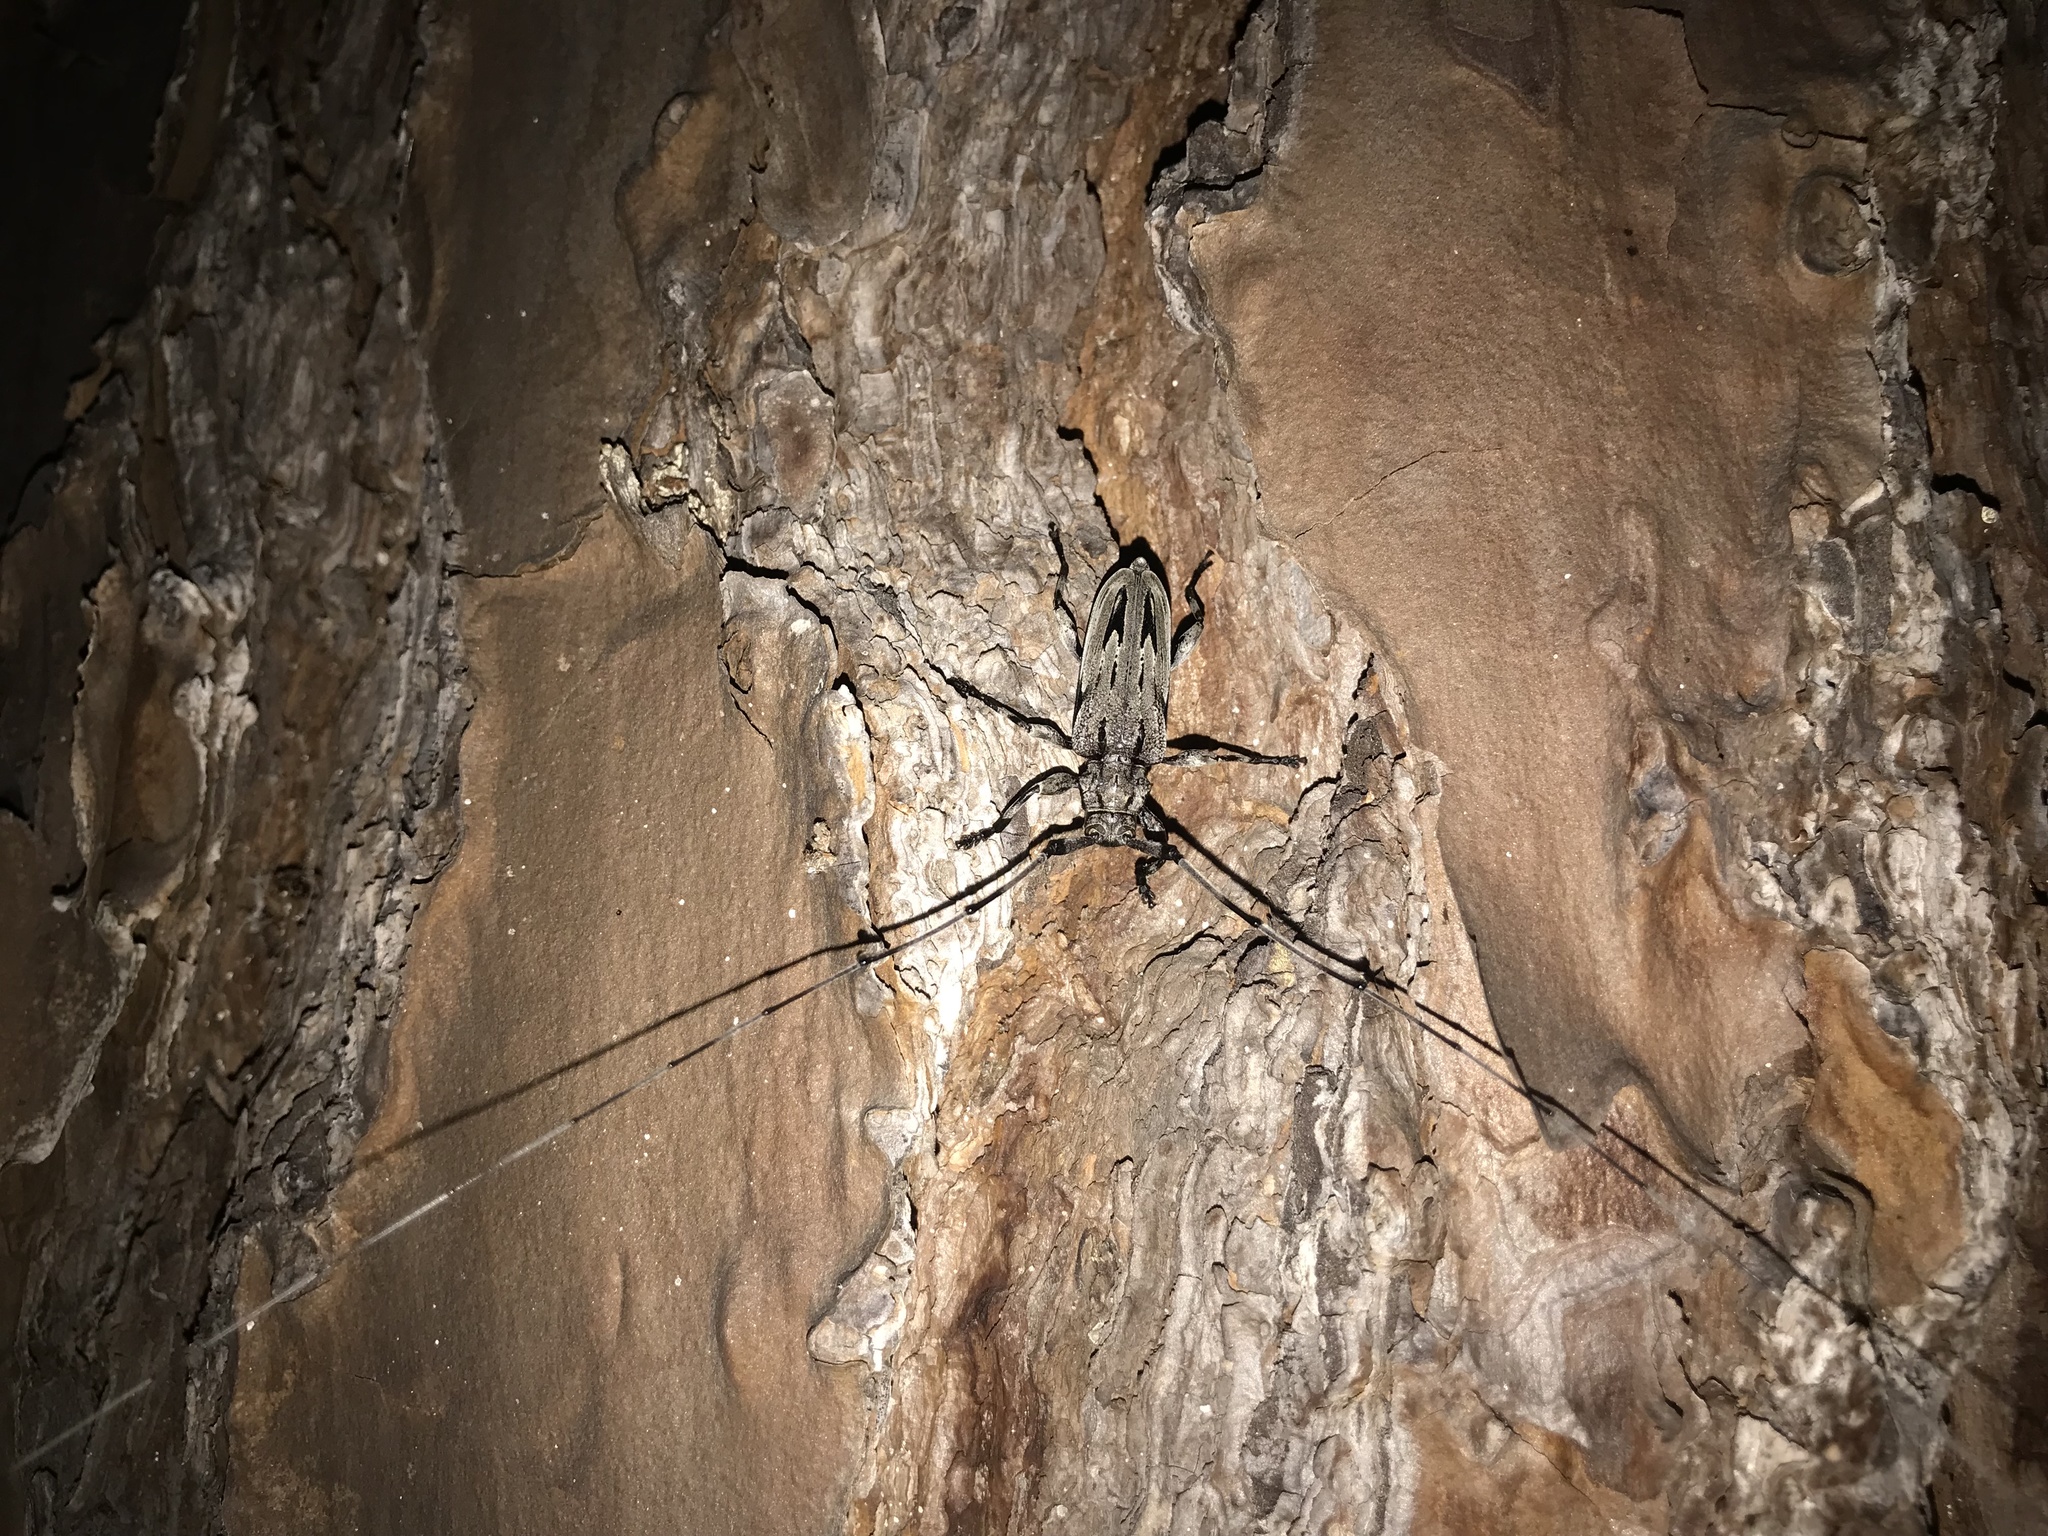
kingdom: Animalia
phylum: Arthropoda
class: Insecta
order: Coleoptera
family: Cerambycidae
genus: Acanthocinus
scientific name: Acanthocinus nodosus
